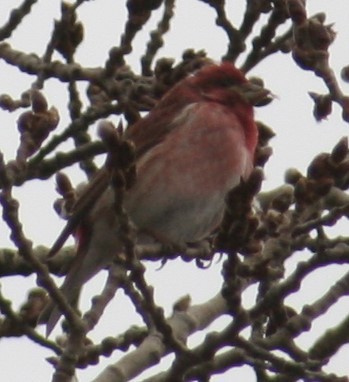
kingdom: Animalia
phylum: Chordata
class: Aves
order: Passeriformes
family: Fringillidae
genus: Haemorhous
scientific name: Haemorhous purpureus
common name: Purple finch
